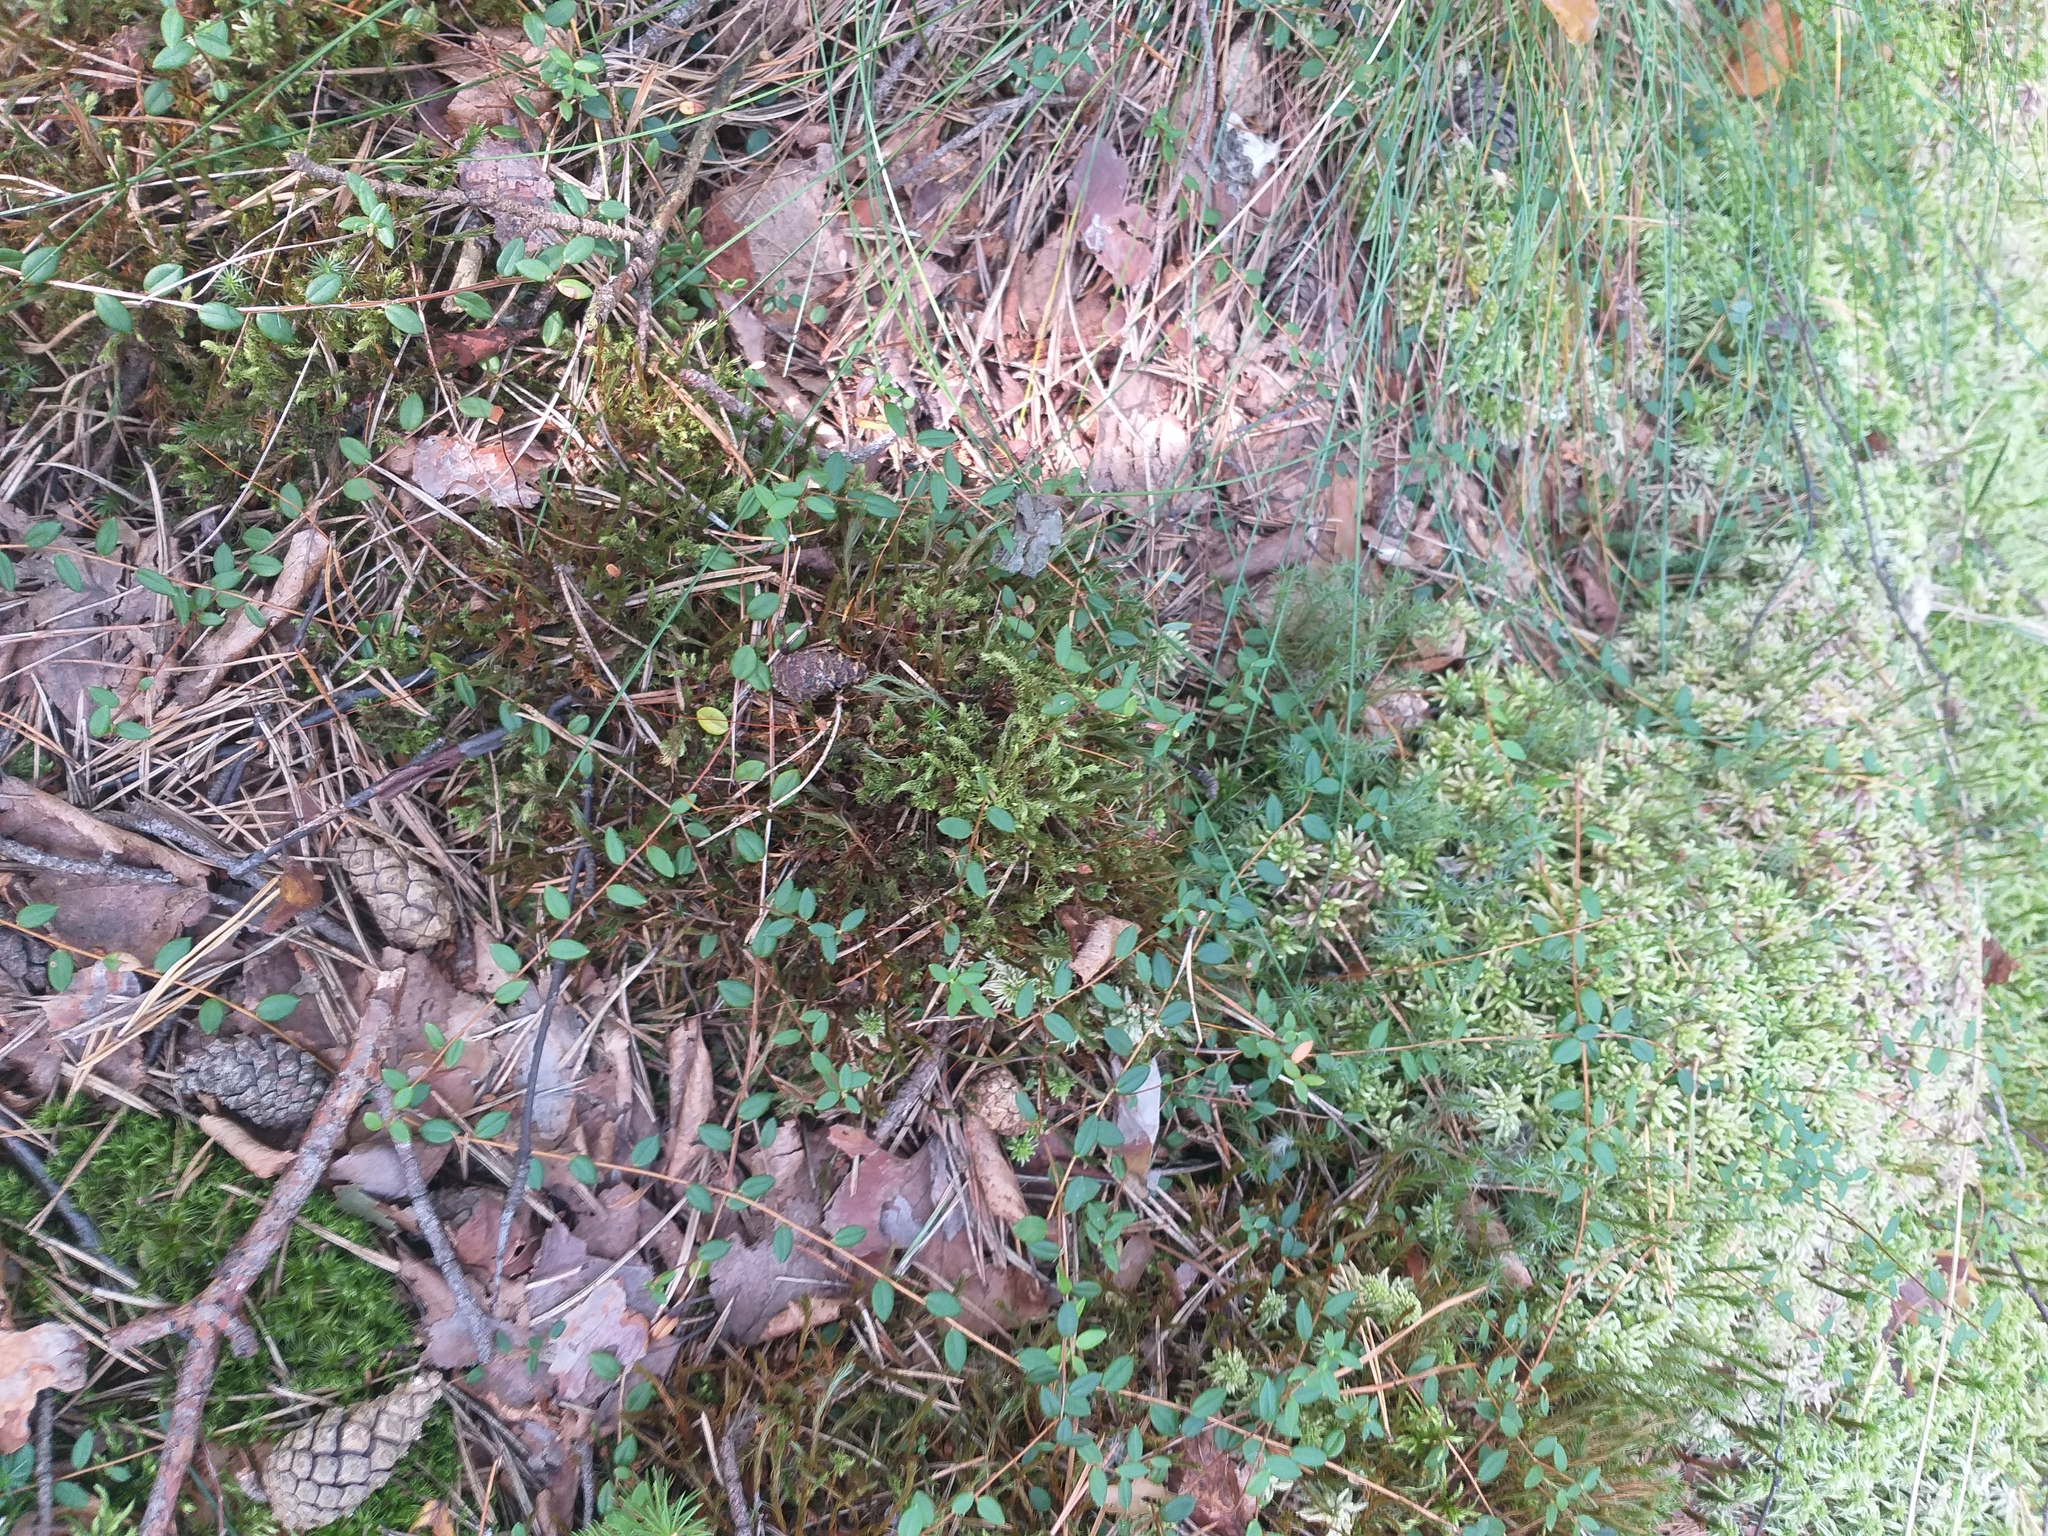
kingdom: Plantae
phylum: Tracheophyta
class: Magnoliopsida
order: Ericales
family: Ericaceae
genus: Vaccinium
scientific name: Vaccinium oxycoccos
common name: Cranberry
